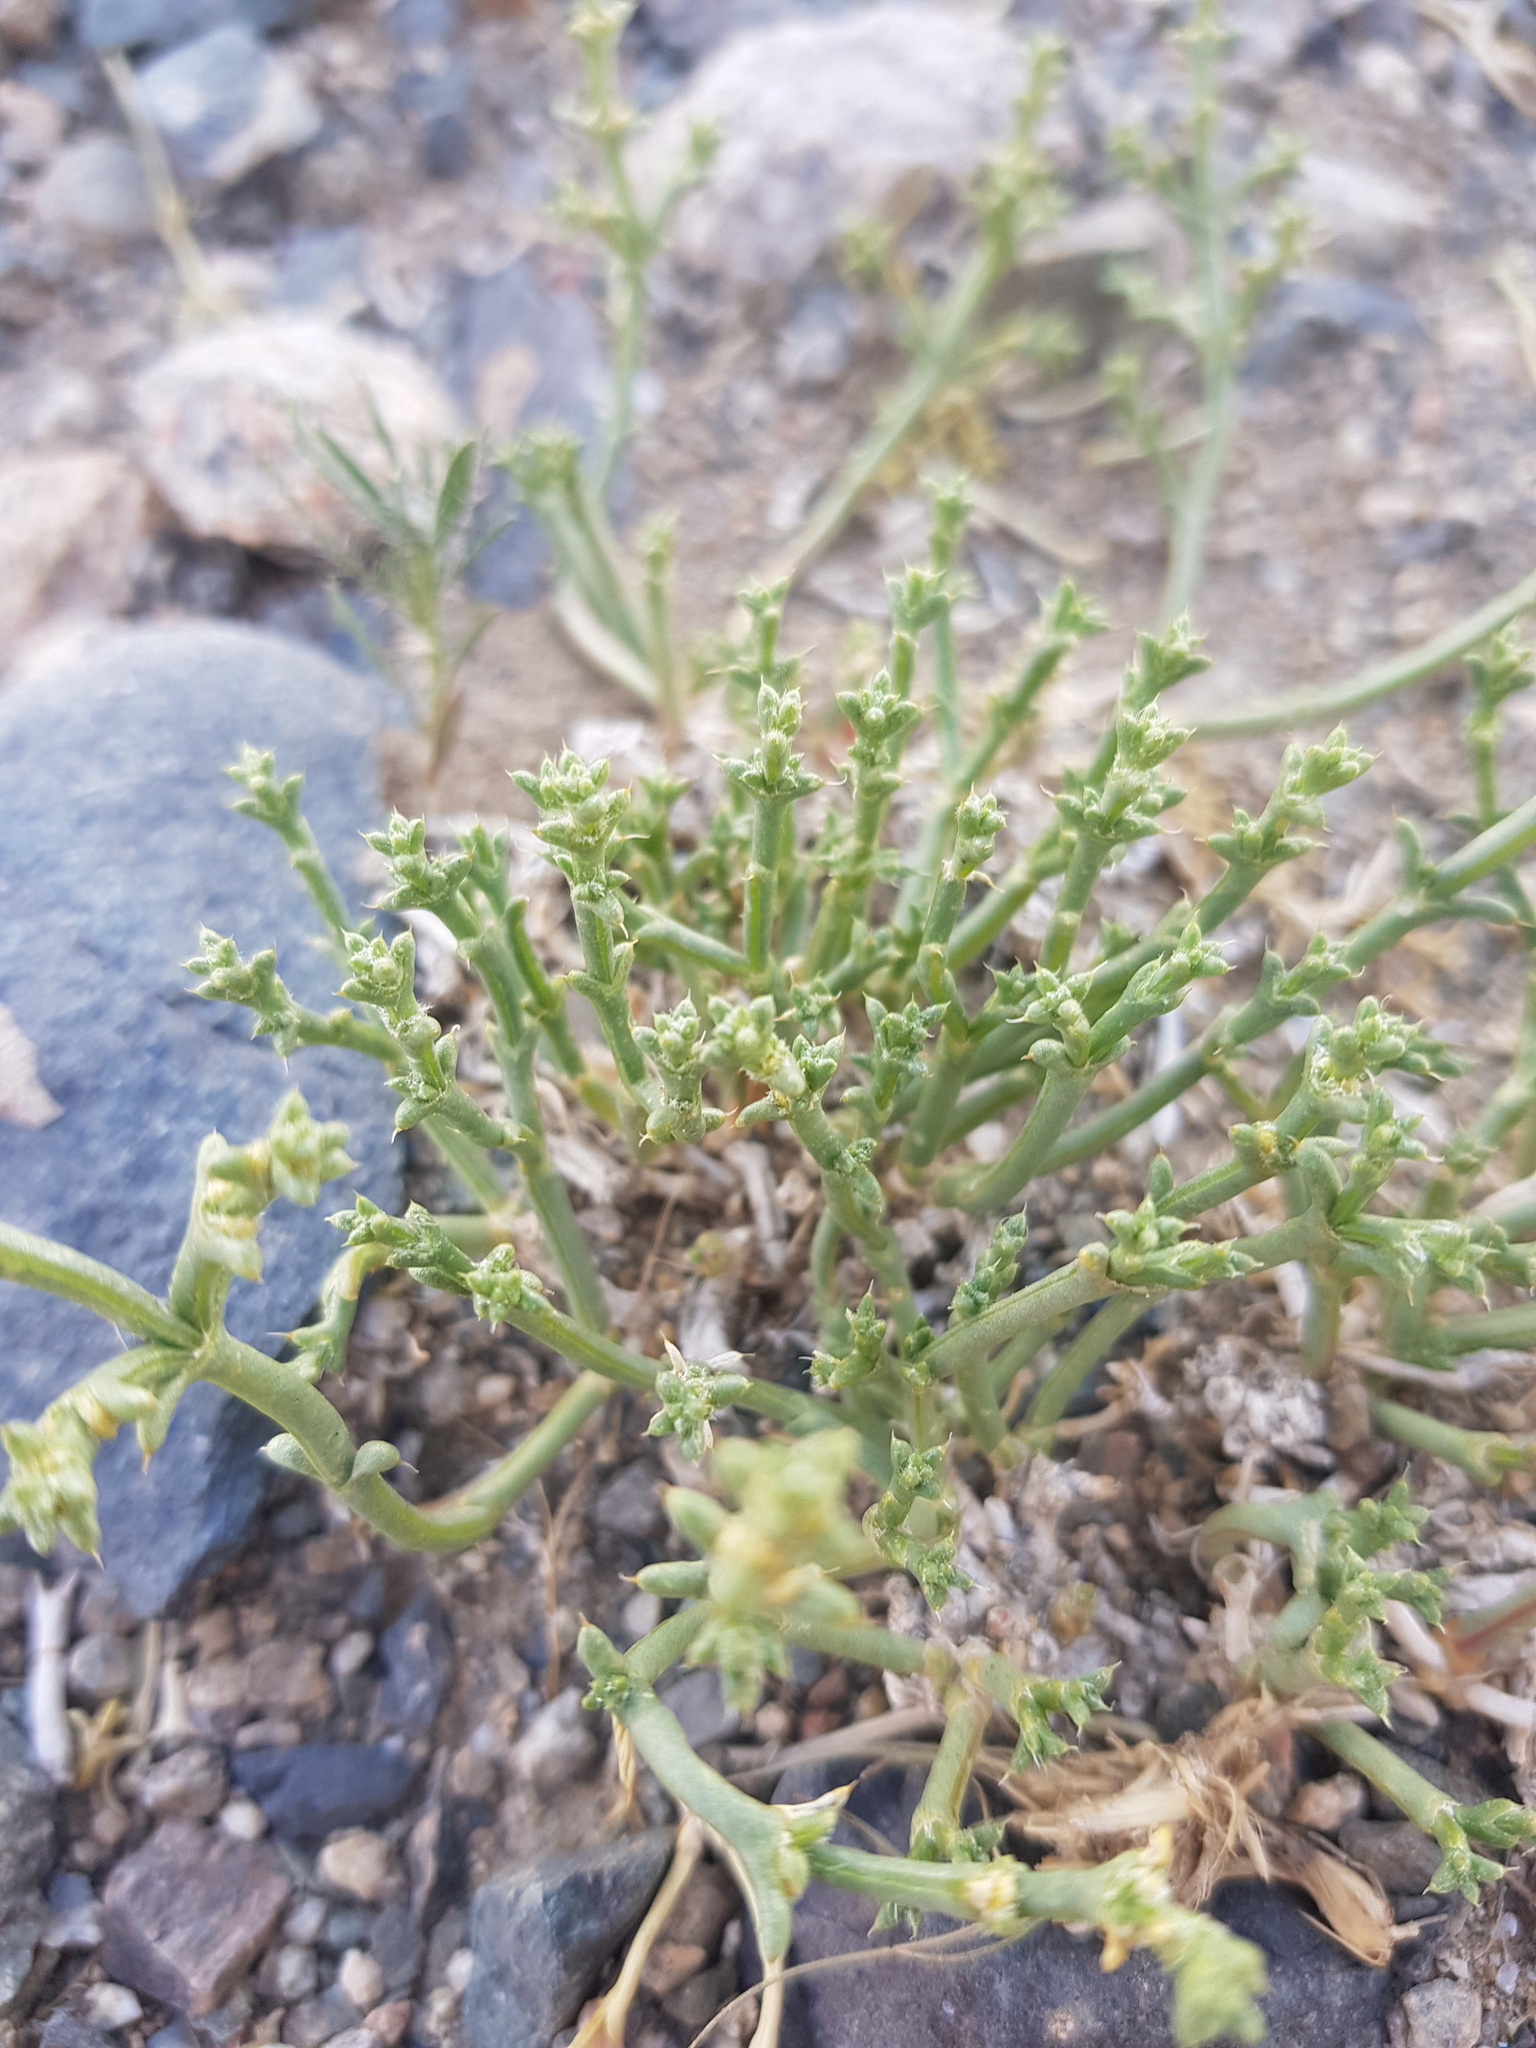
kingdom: Plantae
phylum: Tracheophyta
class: Magnoliopsida
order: Caryophyllales
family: Amaranthaceae
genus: Anabasis
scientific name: Anabasis brevifolia
